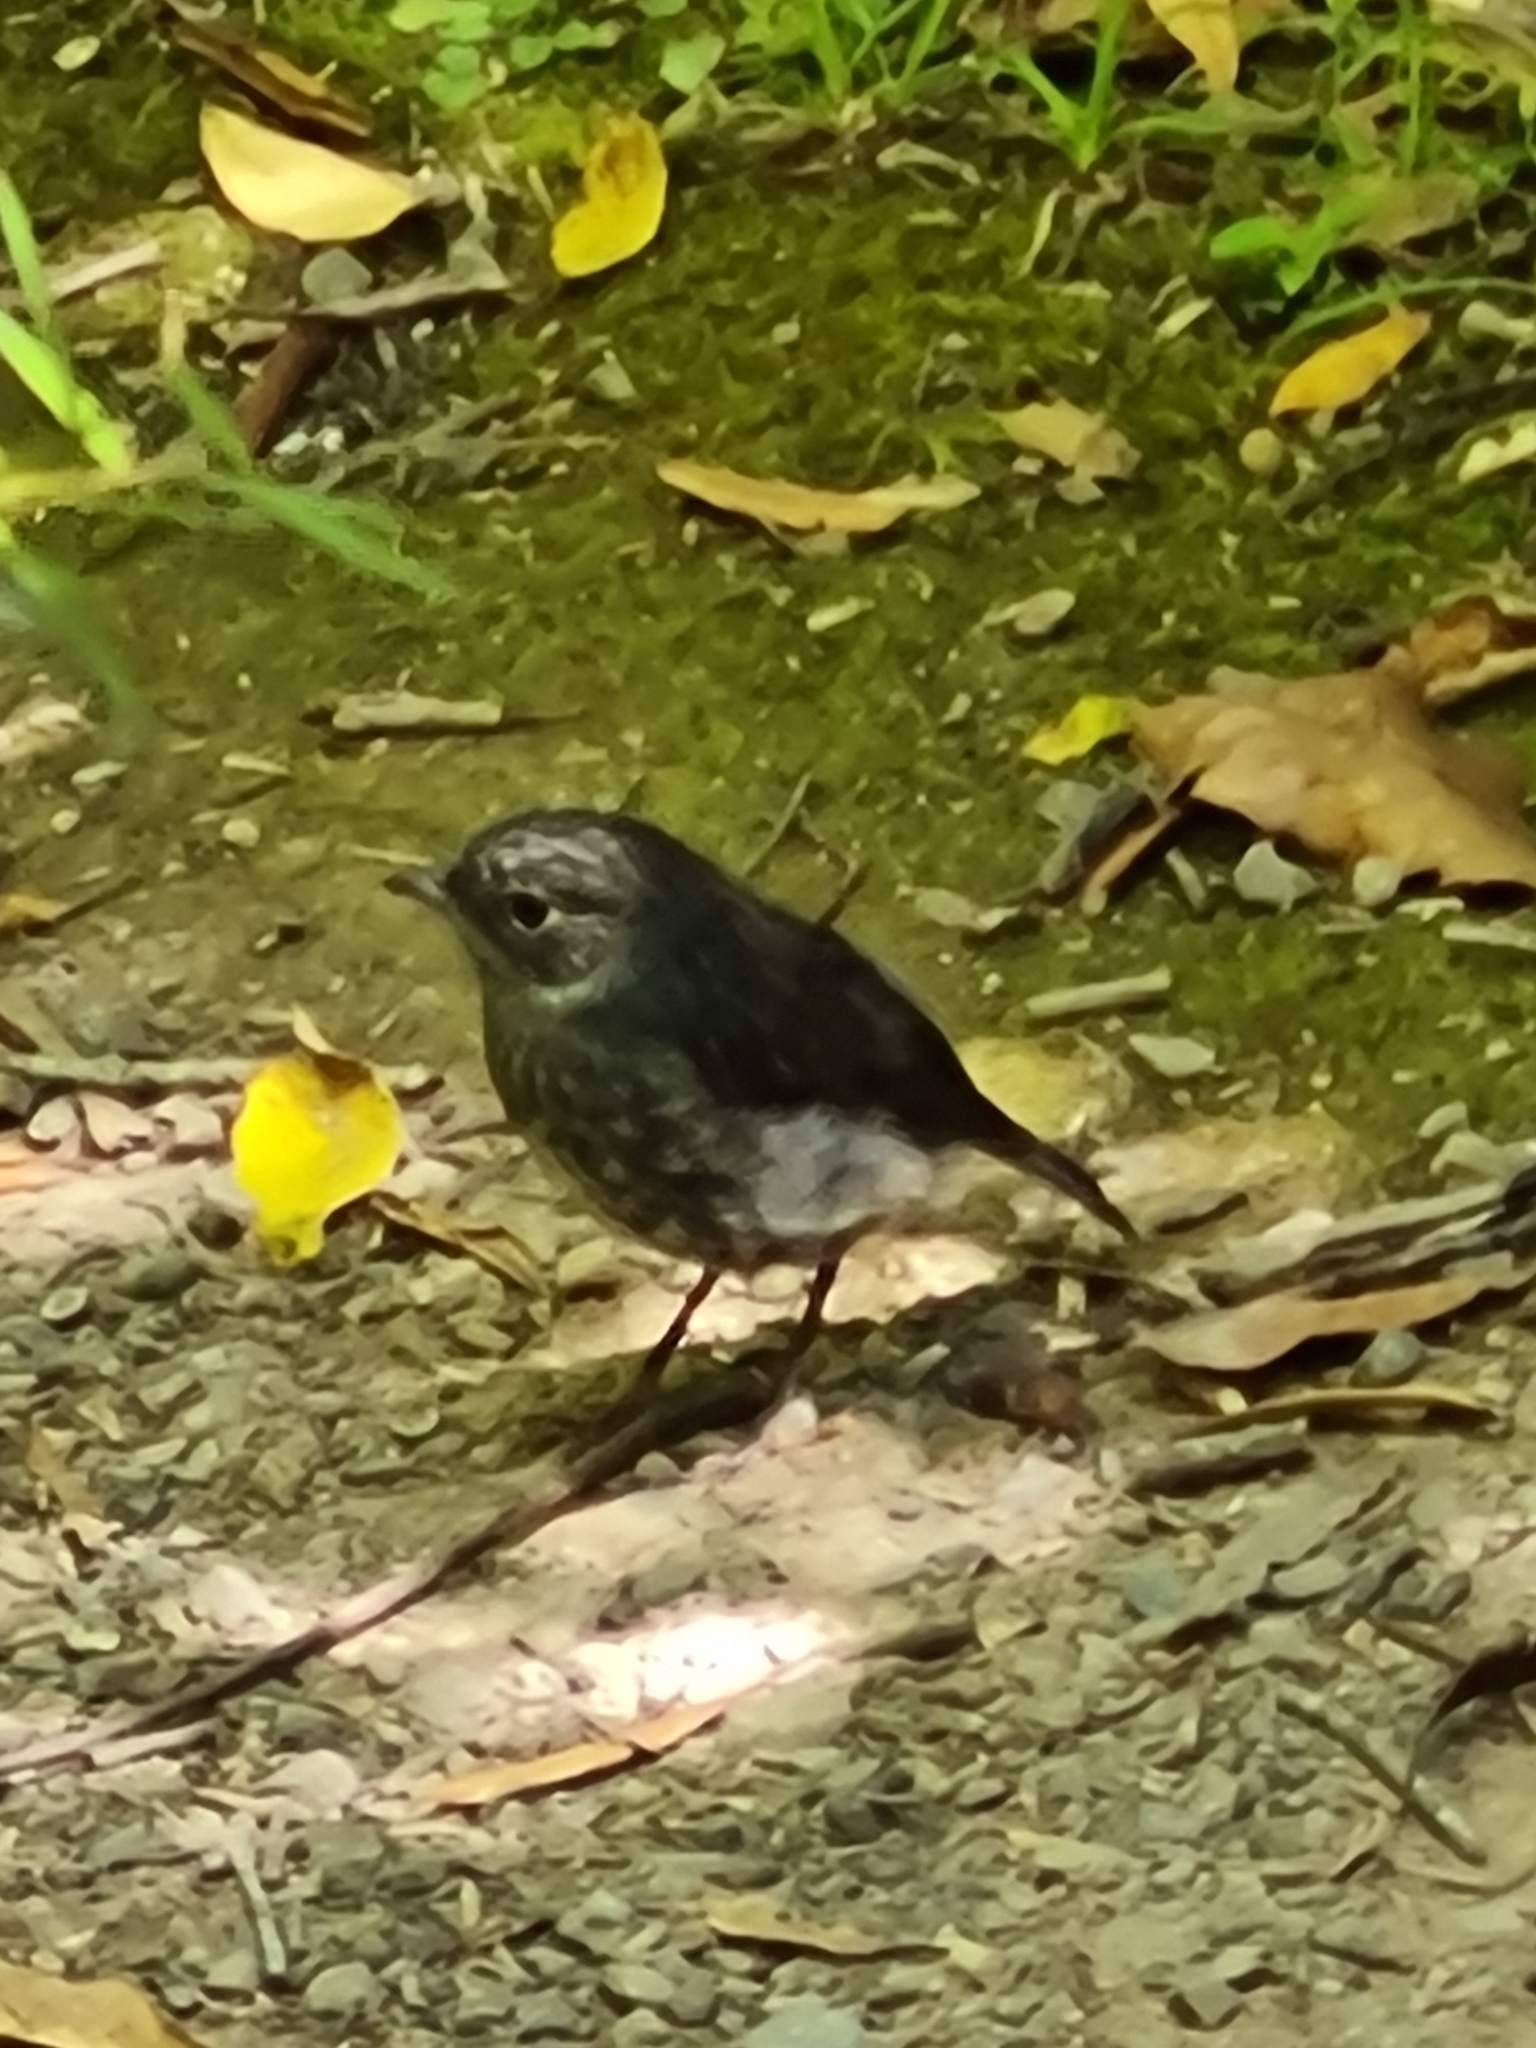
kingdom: Animalia
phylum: Chordata
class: Aves
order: Passeriformes
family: Petroicidae
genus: Petroica
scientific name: Petroica australis
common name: New zealand robin
